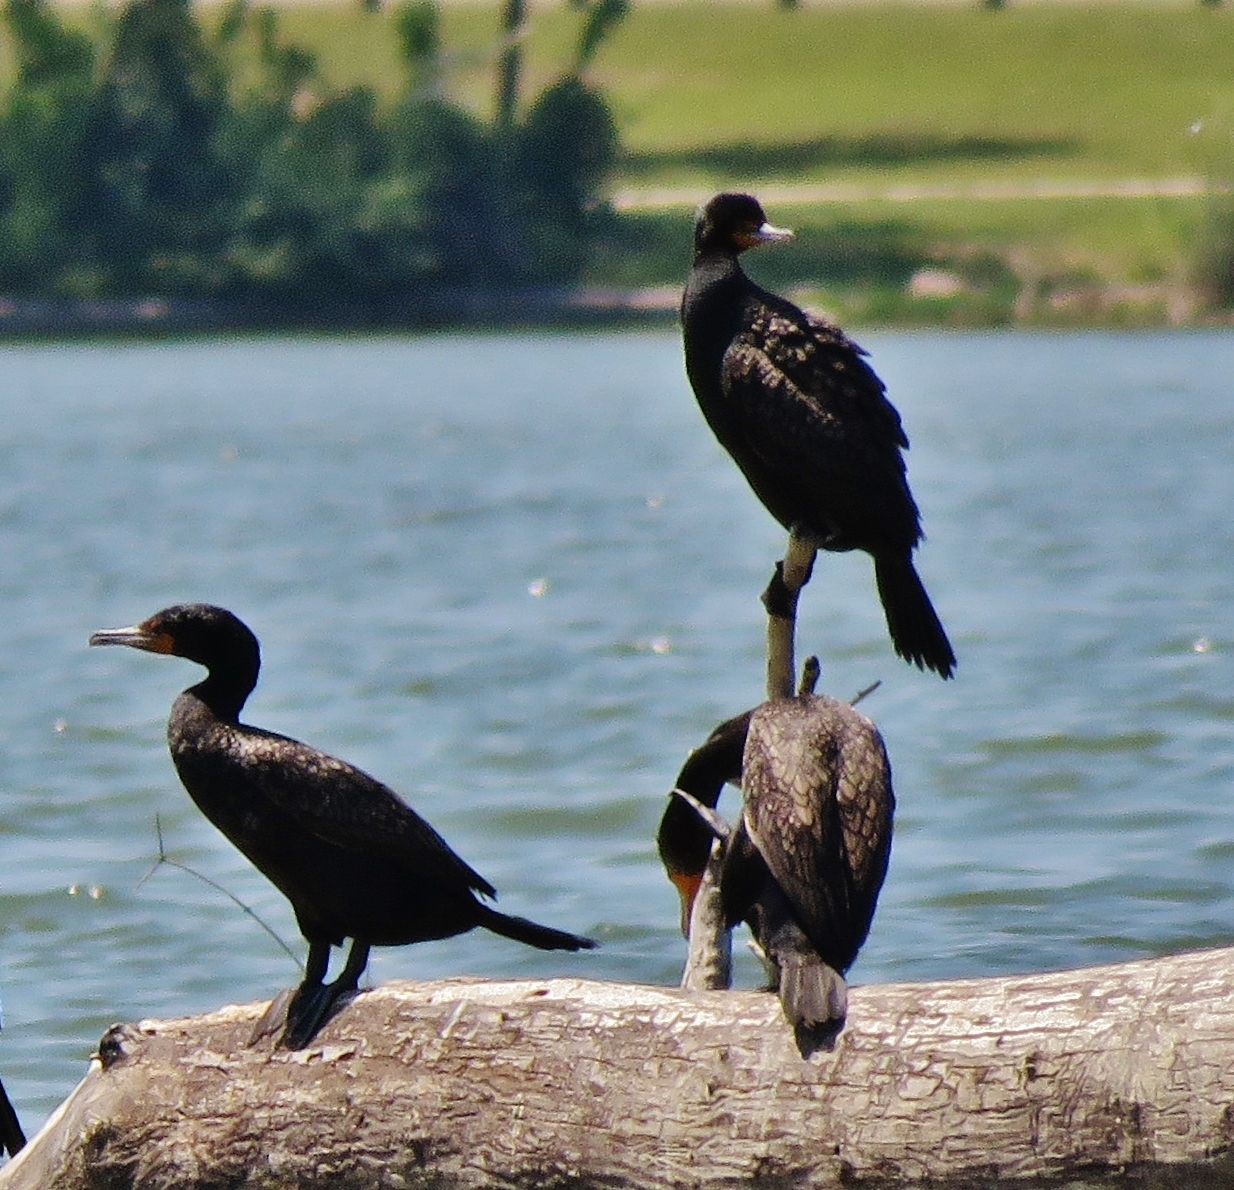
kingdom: Animalia
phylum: Chordata
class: Aves
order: Suliformes
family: Phalacrocoracidae
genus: Phalacrocorax
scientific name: Phalacrocorax auritus
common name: Double-crested cormorant
